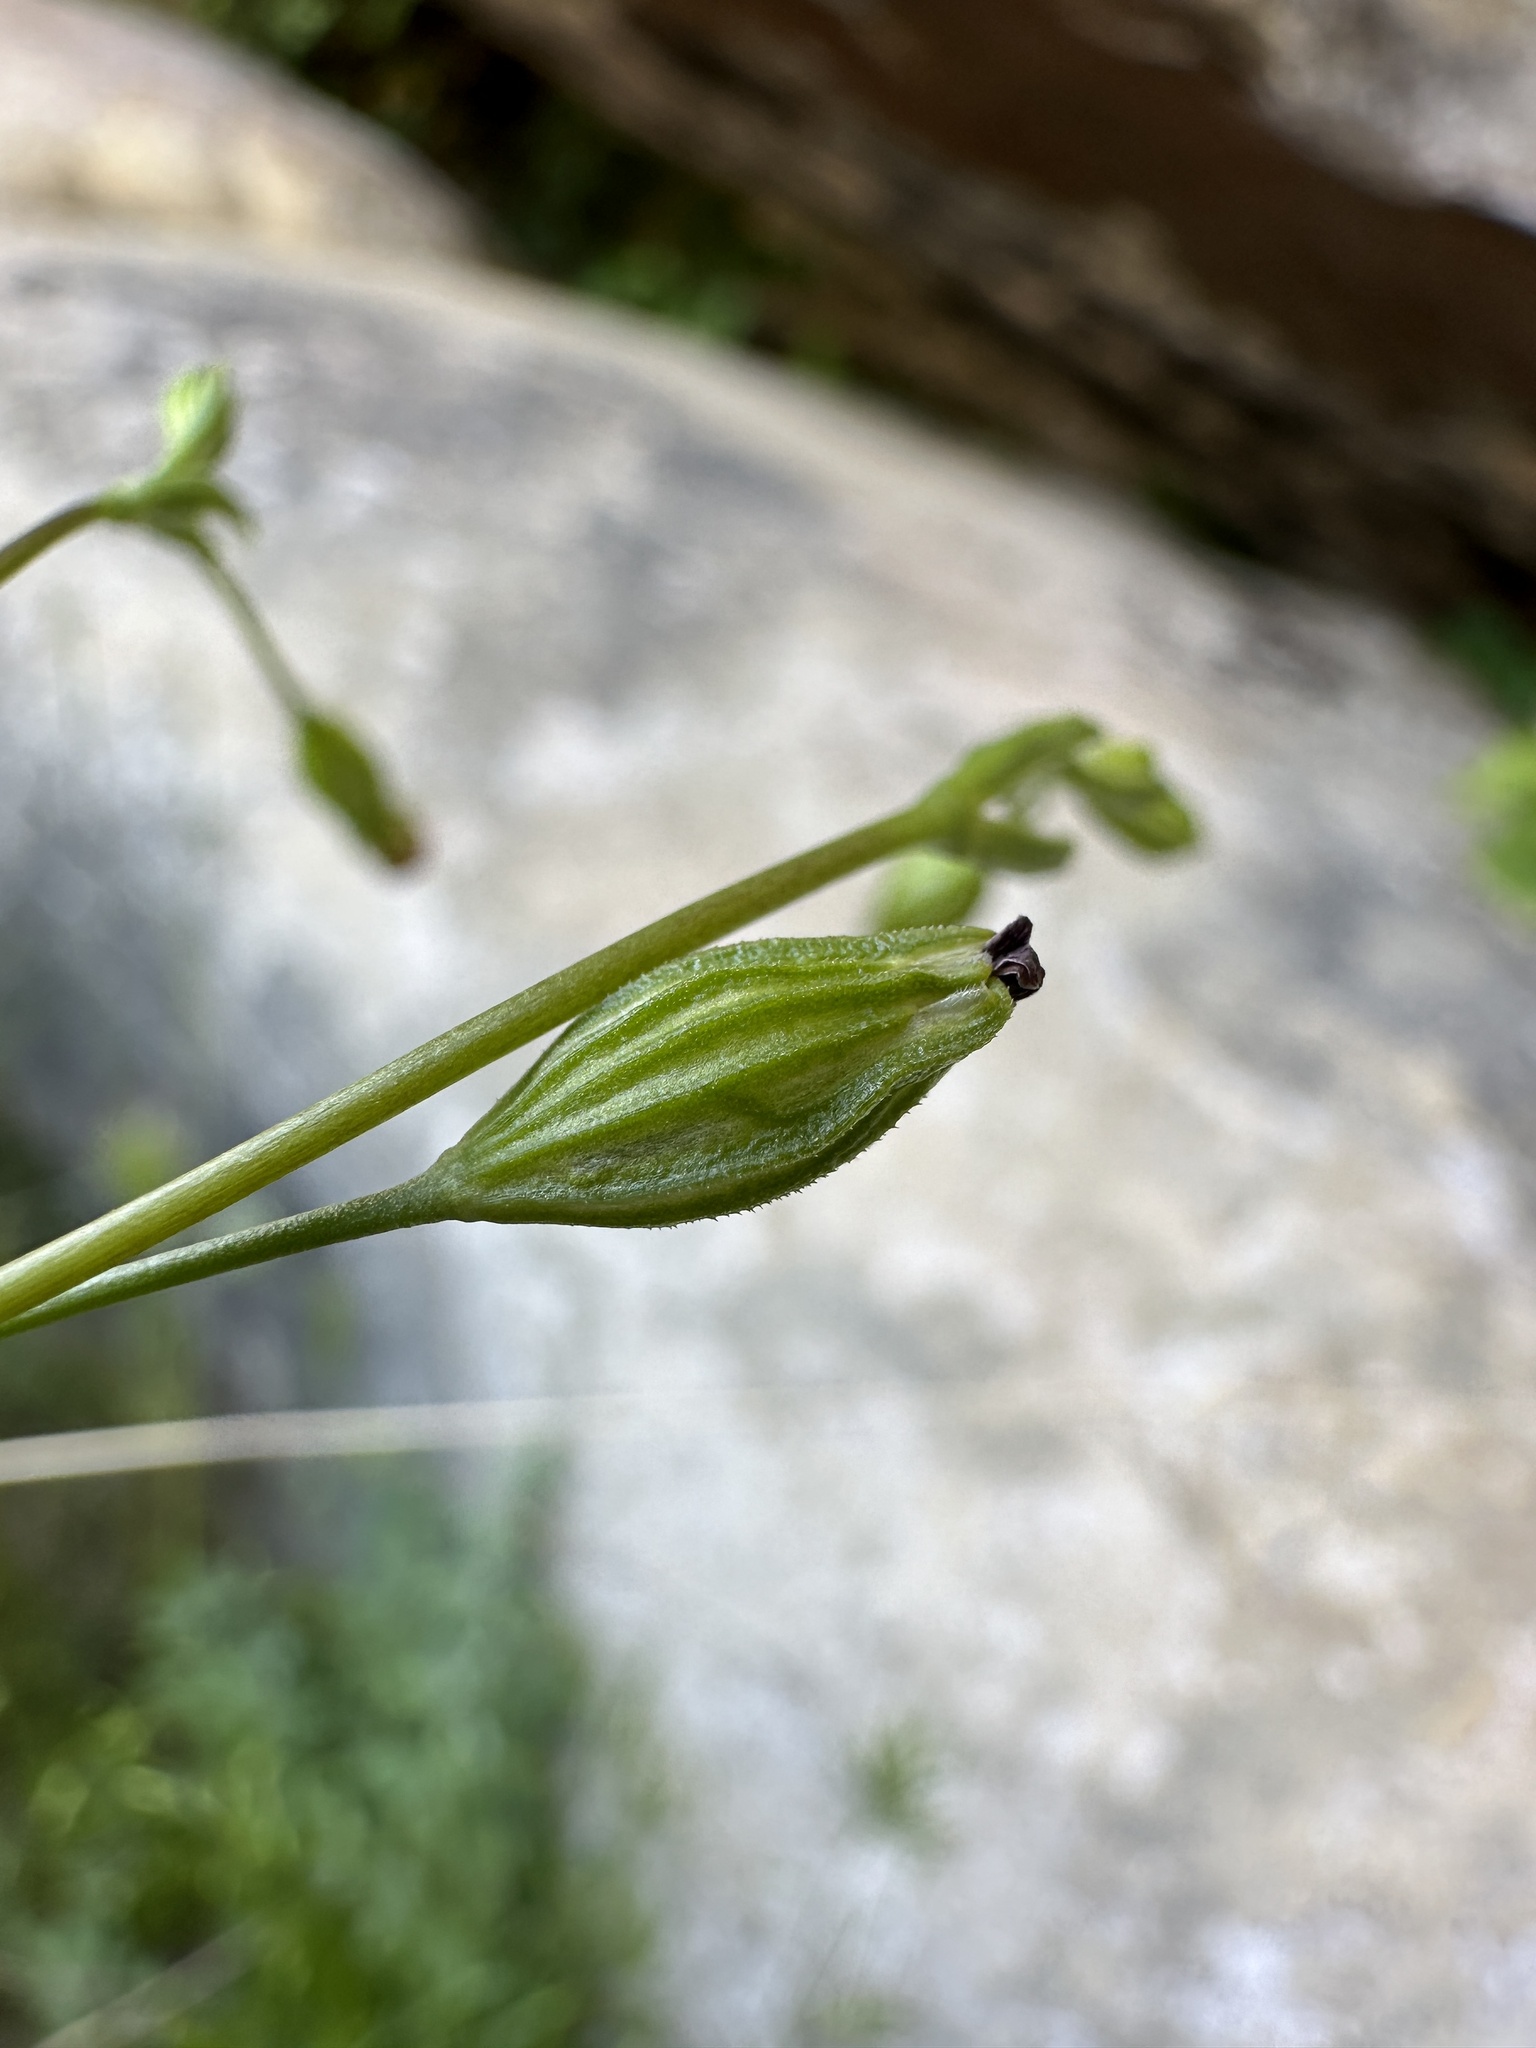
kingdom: Plantae
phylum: Tracheophyta
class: Magnoliopsida
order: Caryophyllales
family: Caryophyllaceae
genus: Silene
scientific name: Silene antirrhina
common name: Sleepy catchfly
